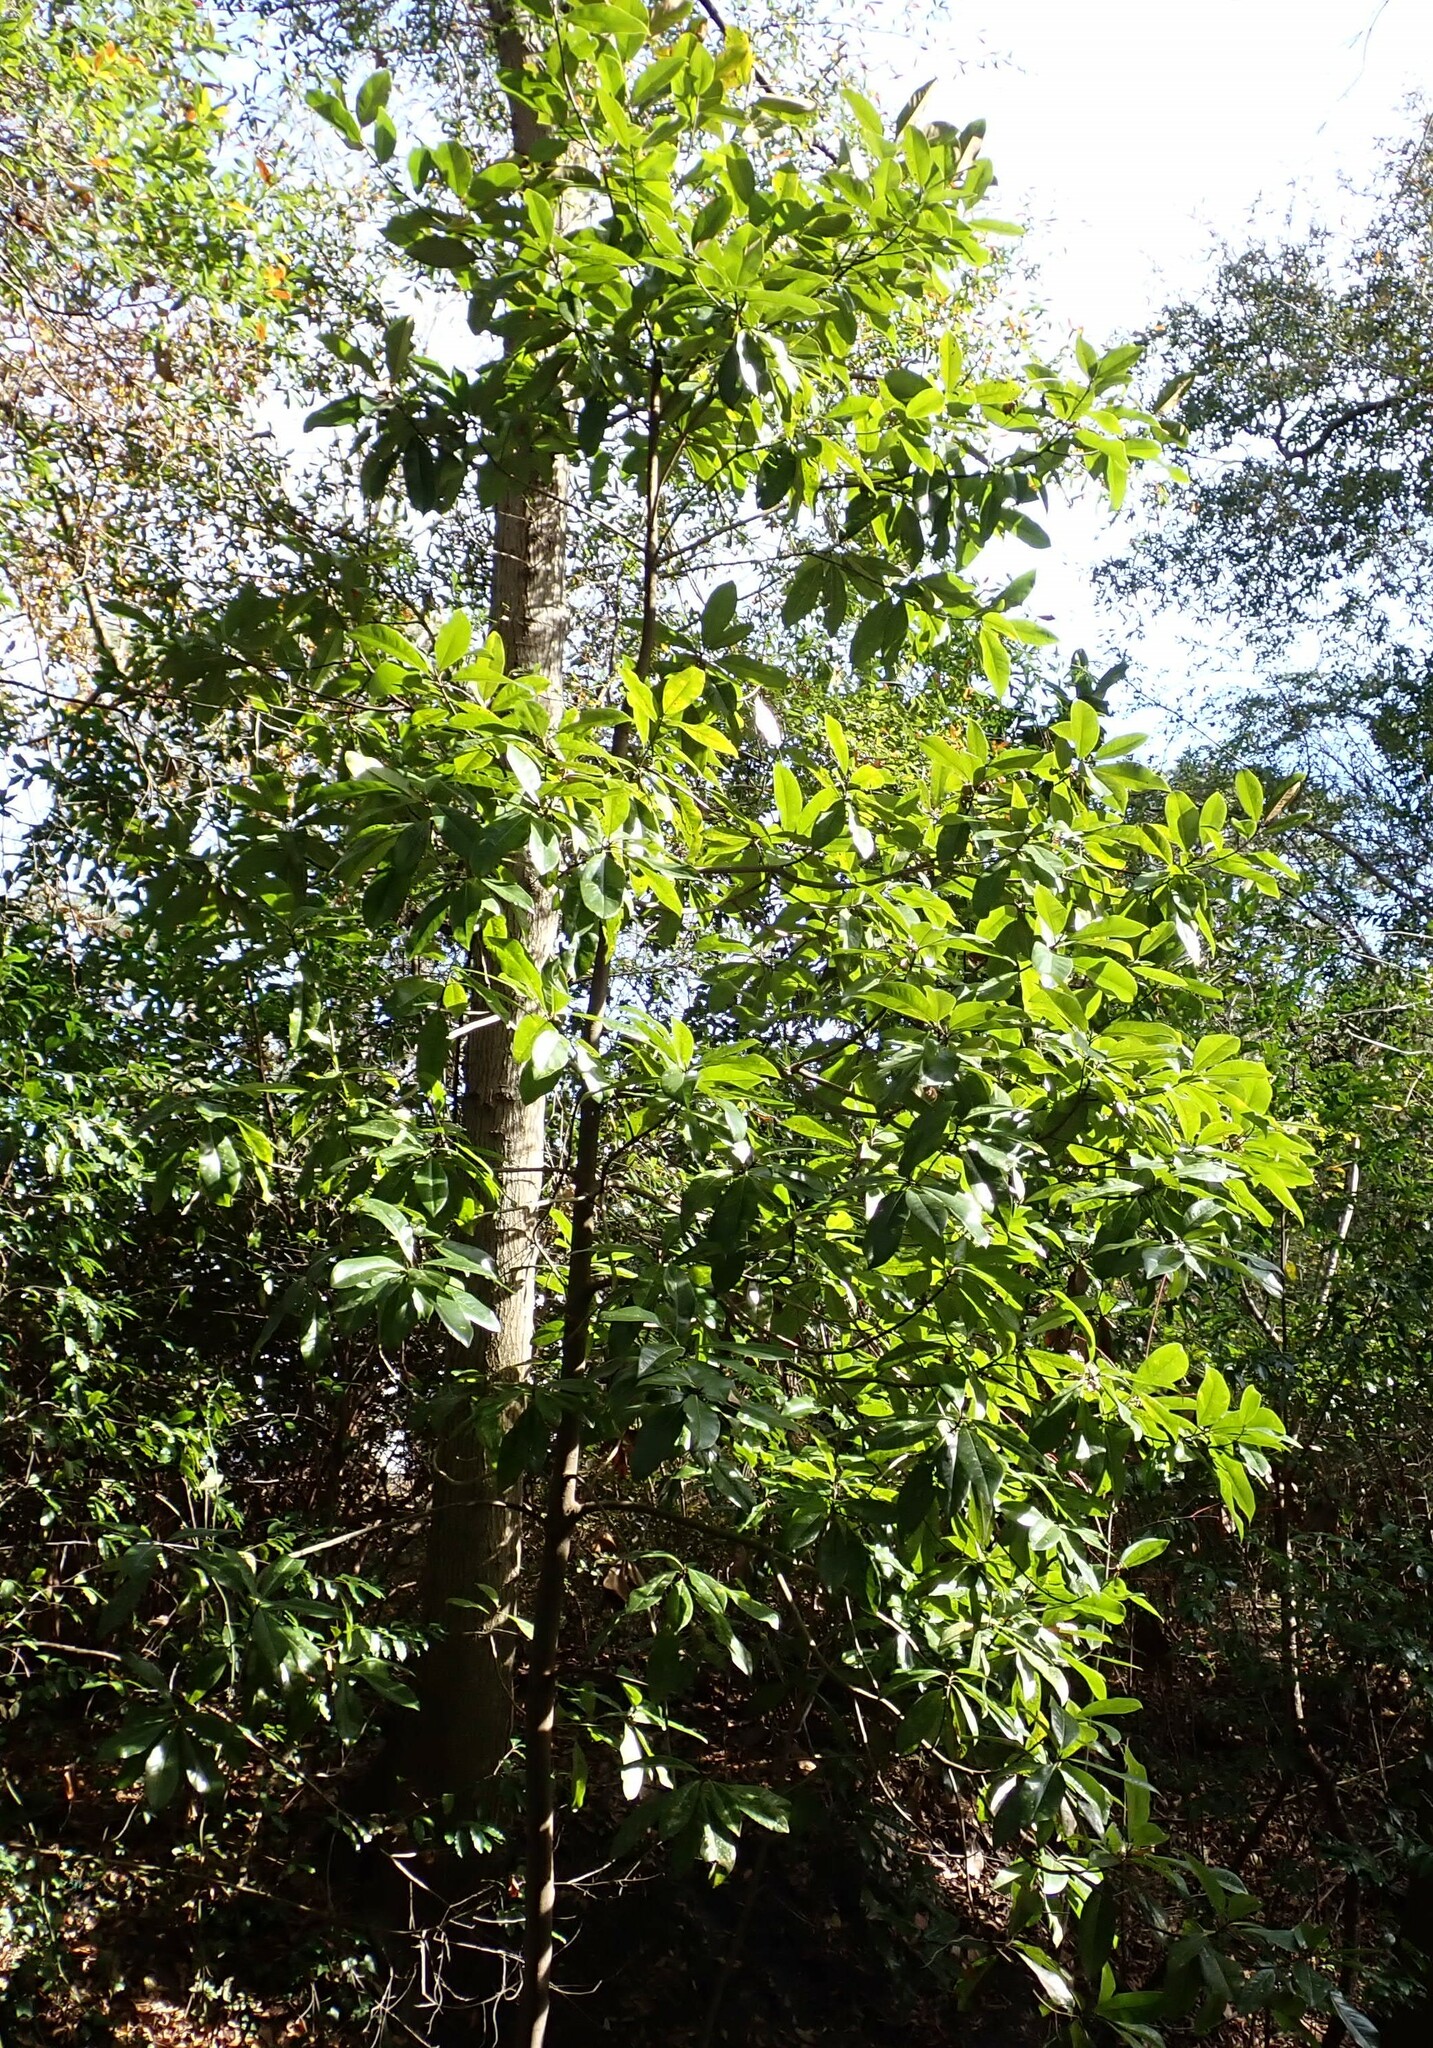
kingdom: Plantae
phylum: Tracheophyta
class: Magnoliopsida
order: Magnoliales
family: Magnoliaceae
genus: Magnolia
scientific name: Magnolia virginiana
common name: Swamp bay
